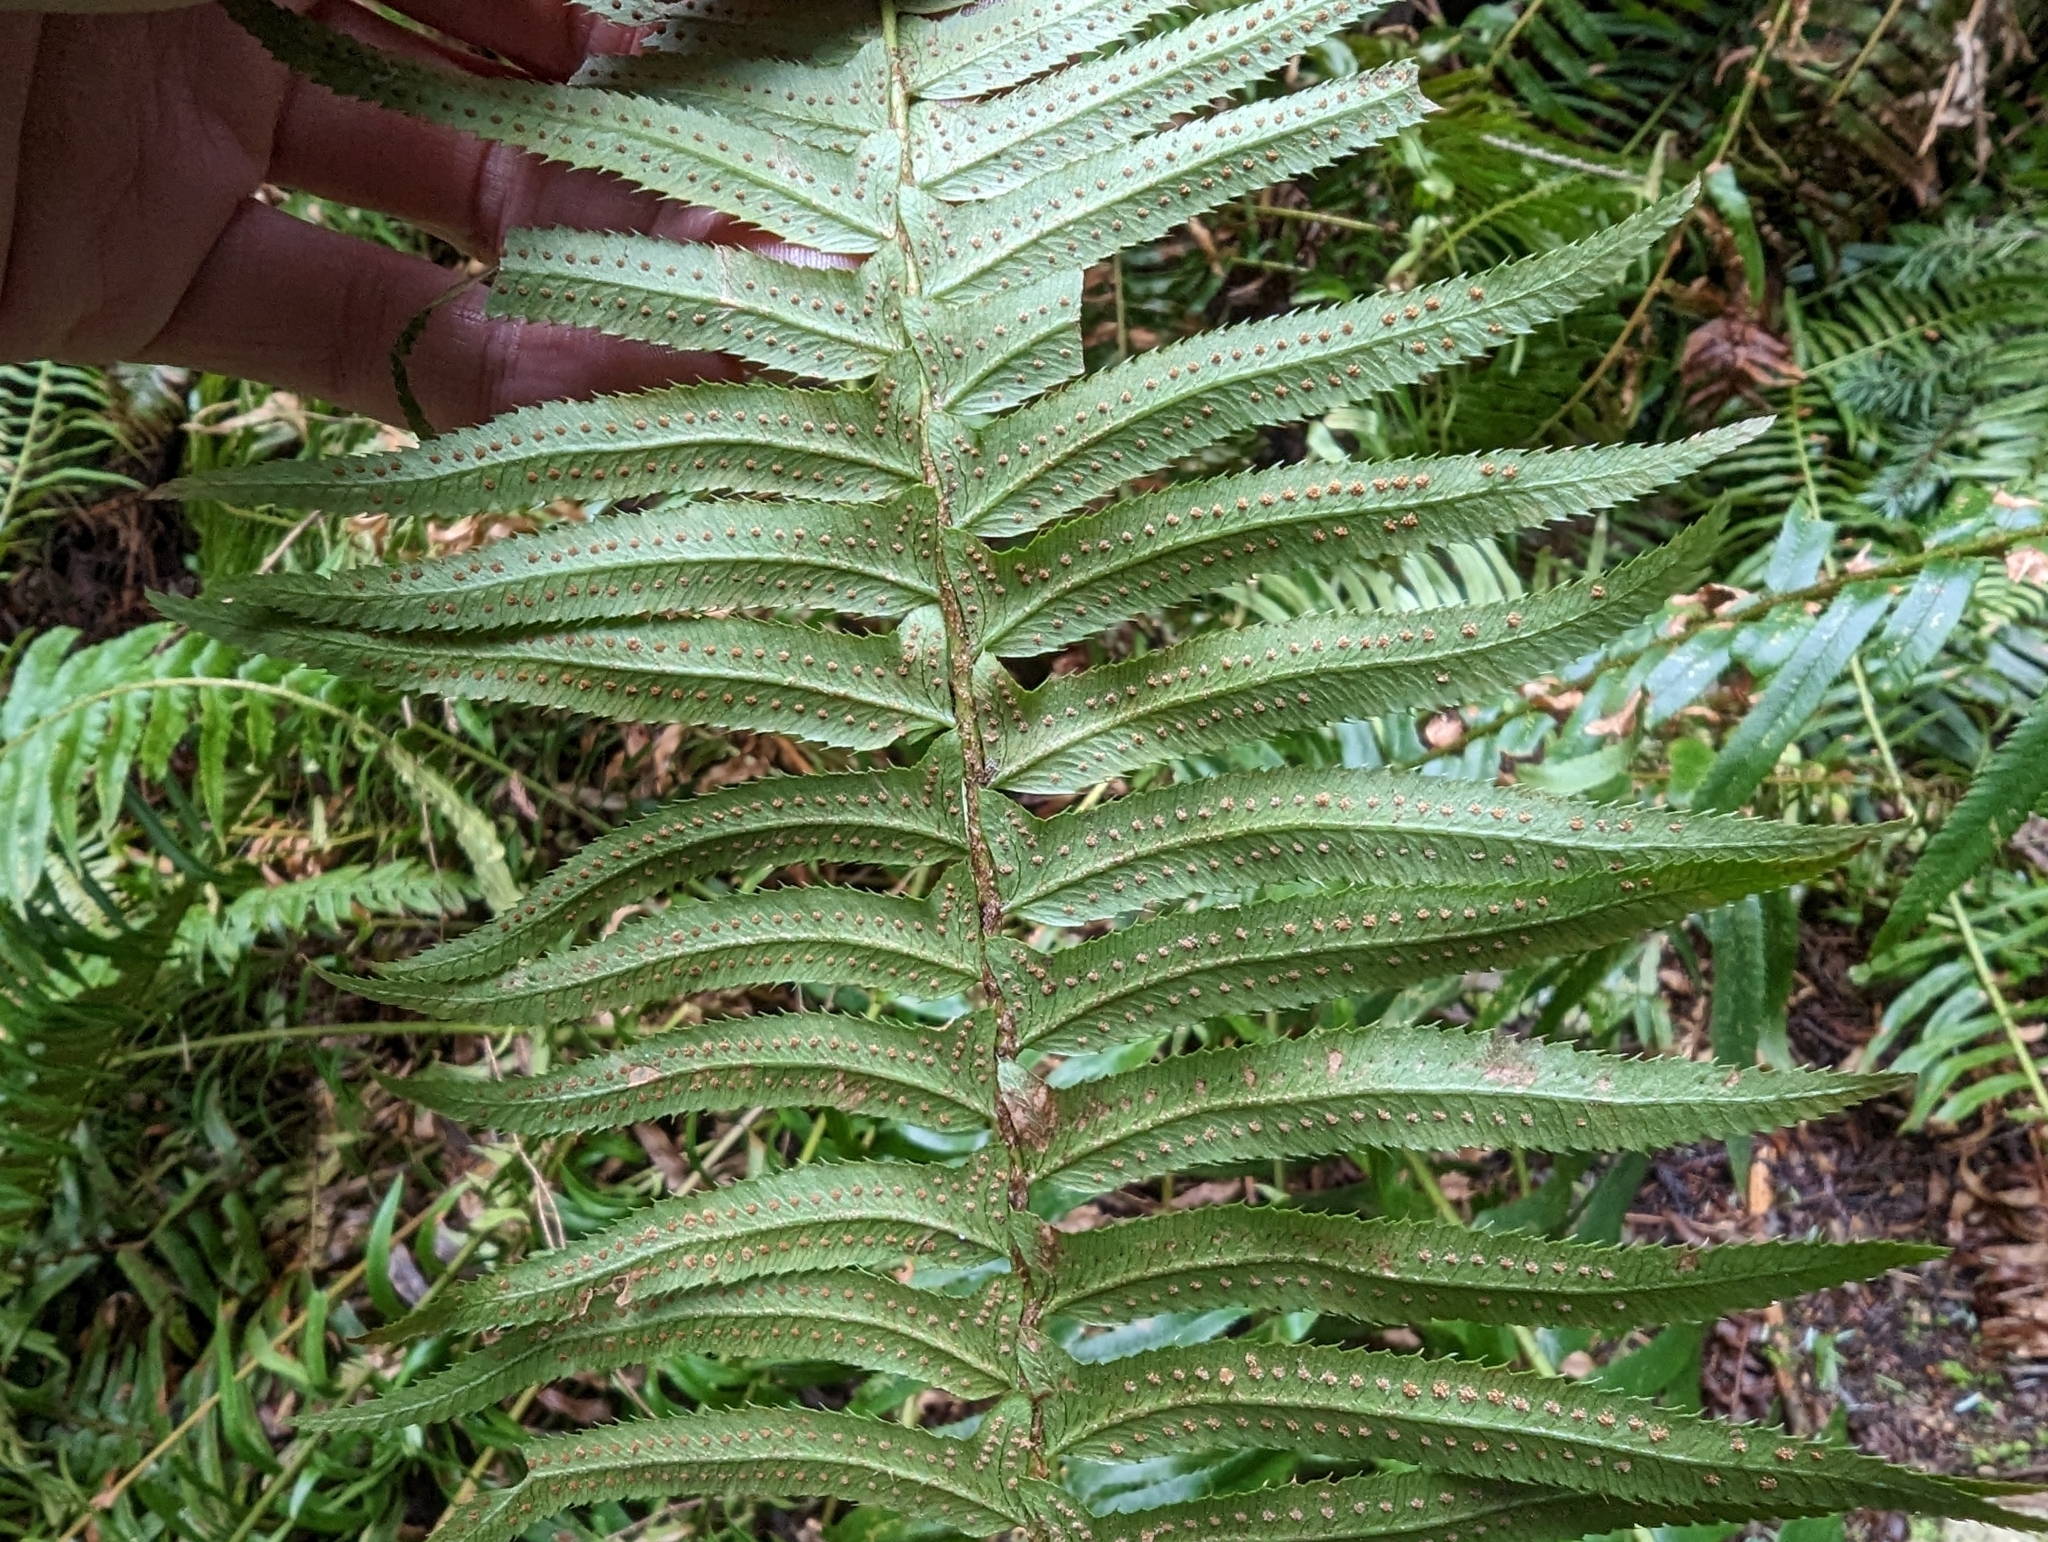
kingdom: Plantae
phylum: Tracheophyta
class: Polypodiopsida
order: Polypodiales
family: Dryopteridaceae
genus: Polystichum
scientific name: Polystichum munitum
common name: Western sword-fern
